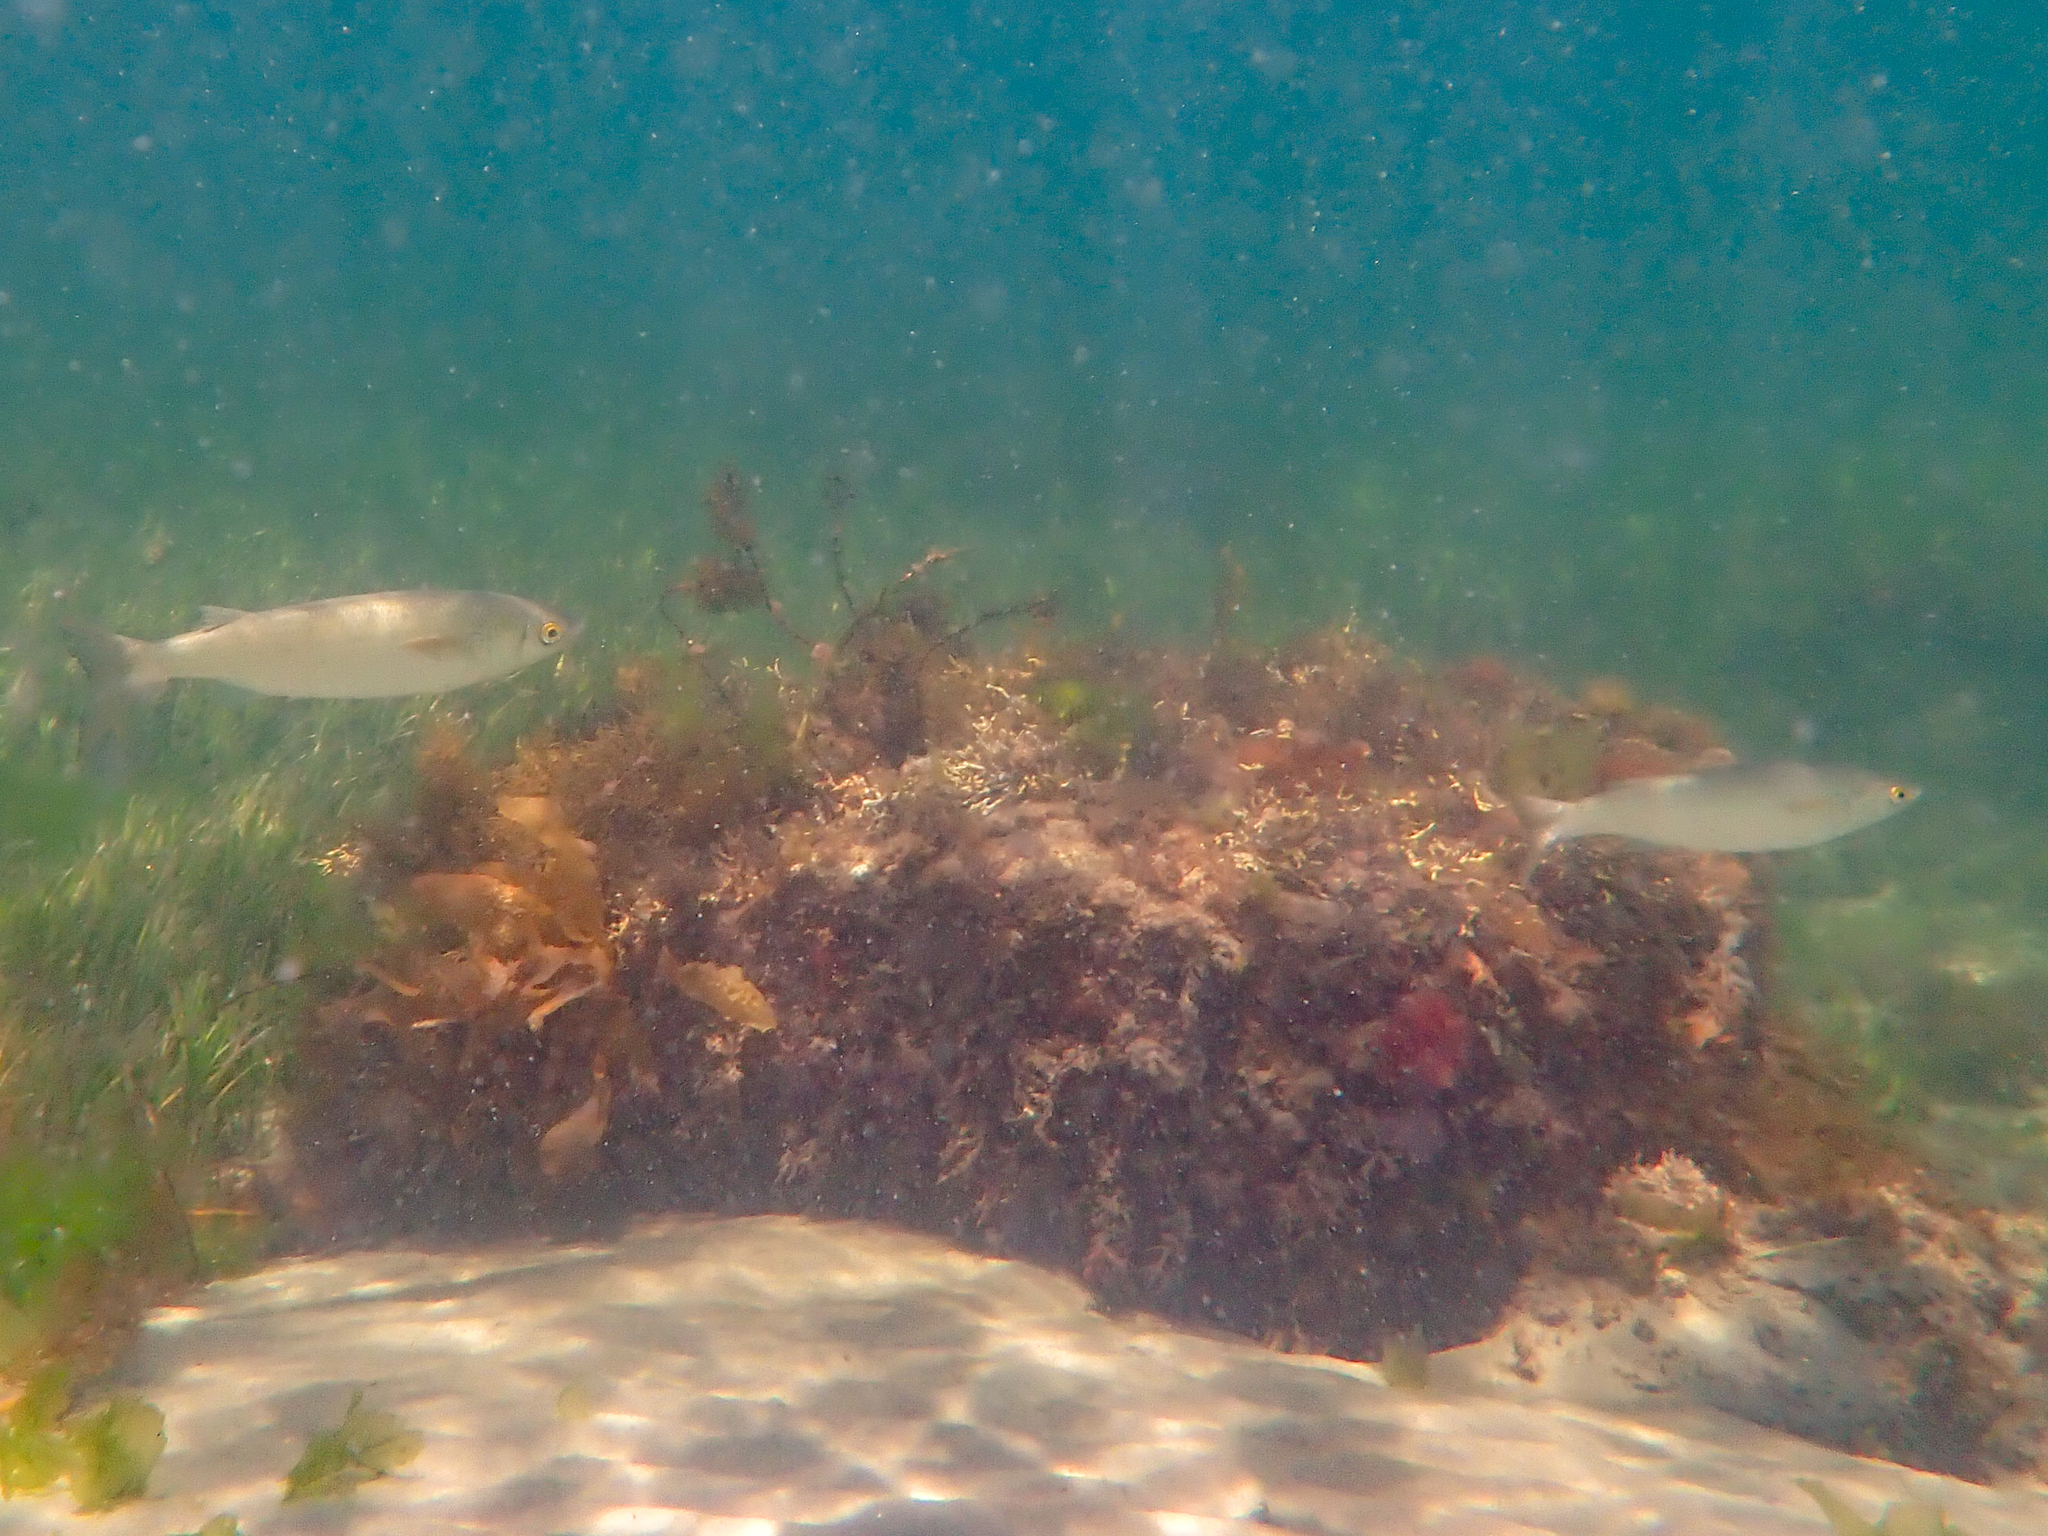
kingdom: Animalia
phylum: Chordata
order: Mugiliformes
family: Mugilidae
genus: Aldrichetta
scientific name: Aldrichetta forsteri
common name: Yellow-eye mullet
